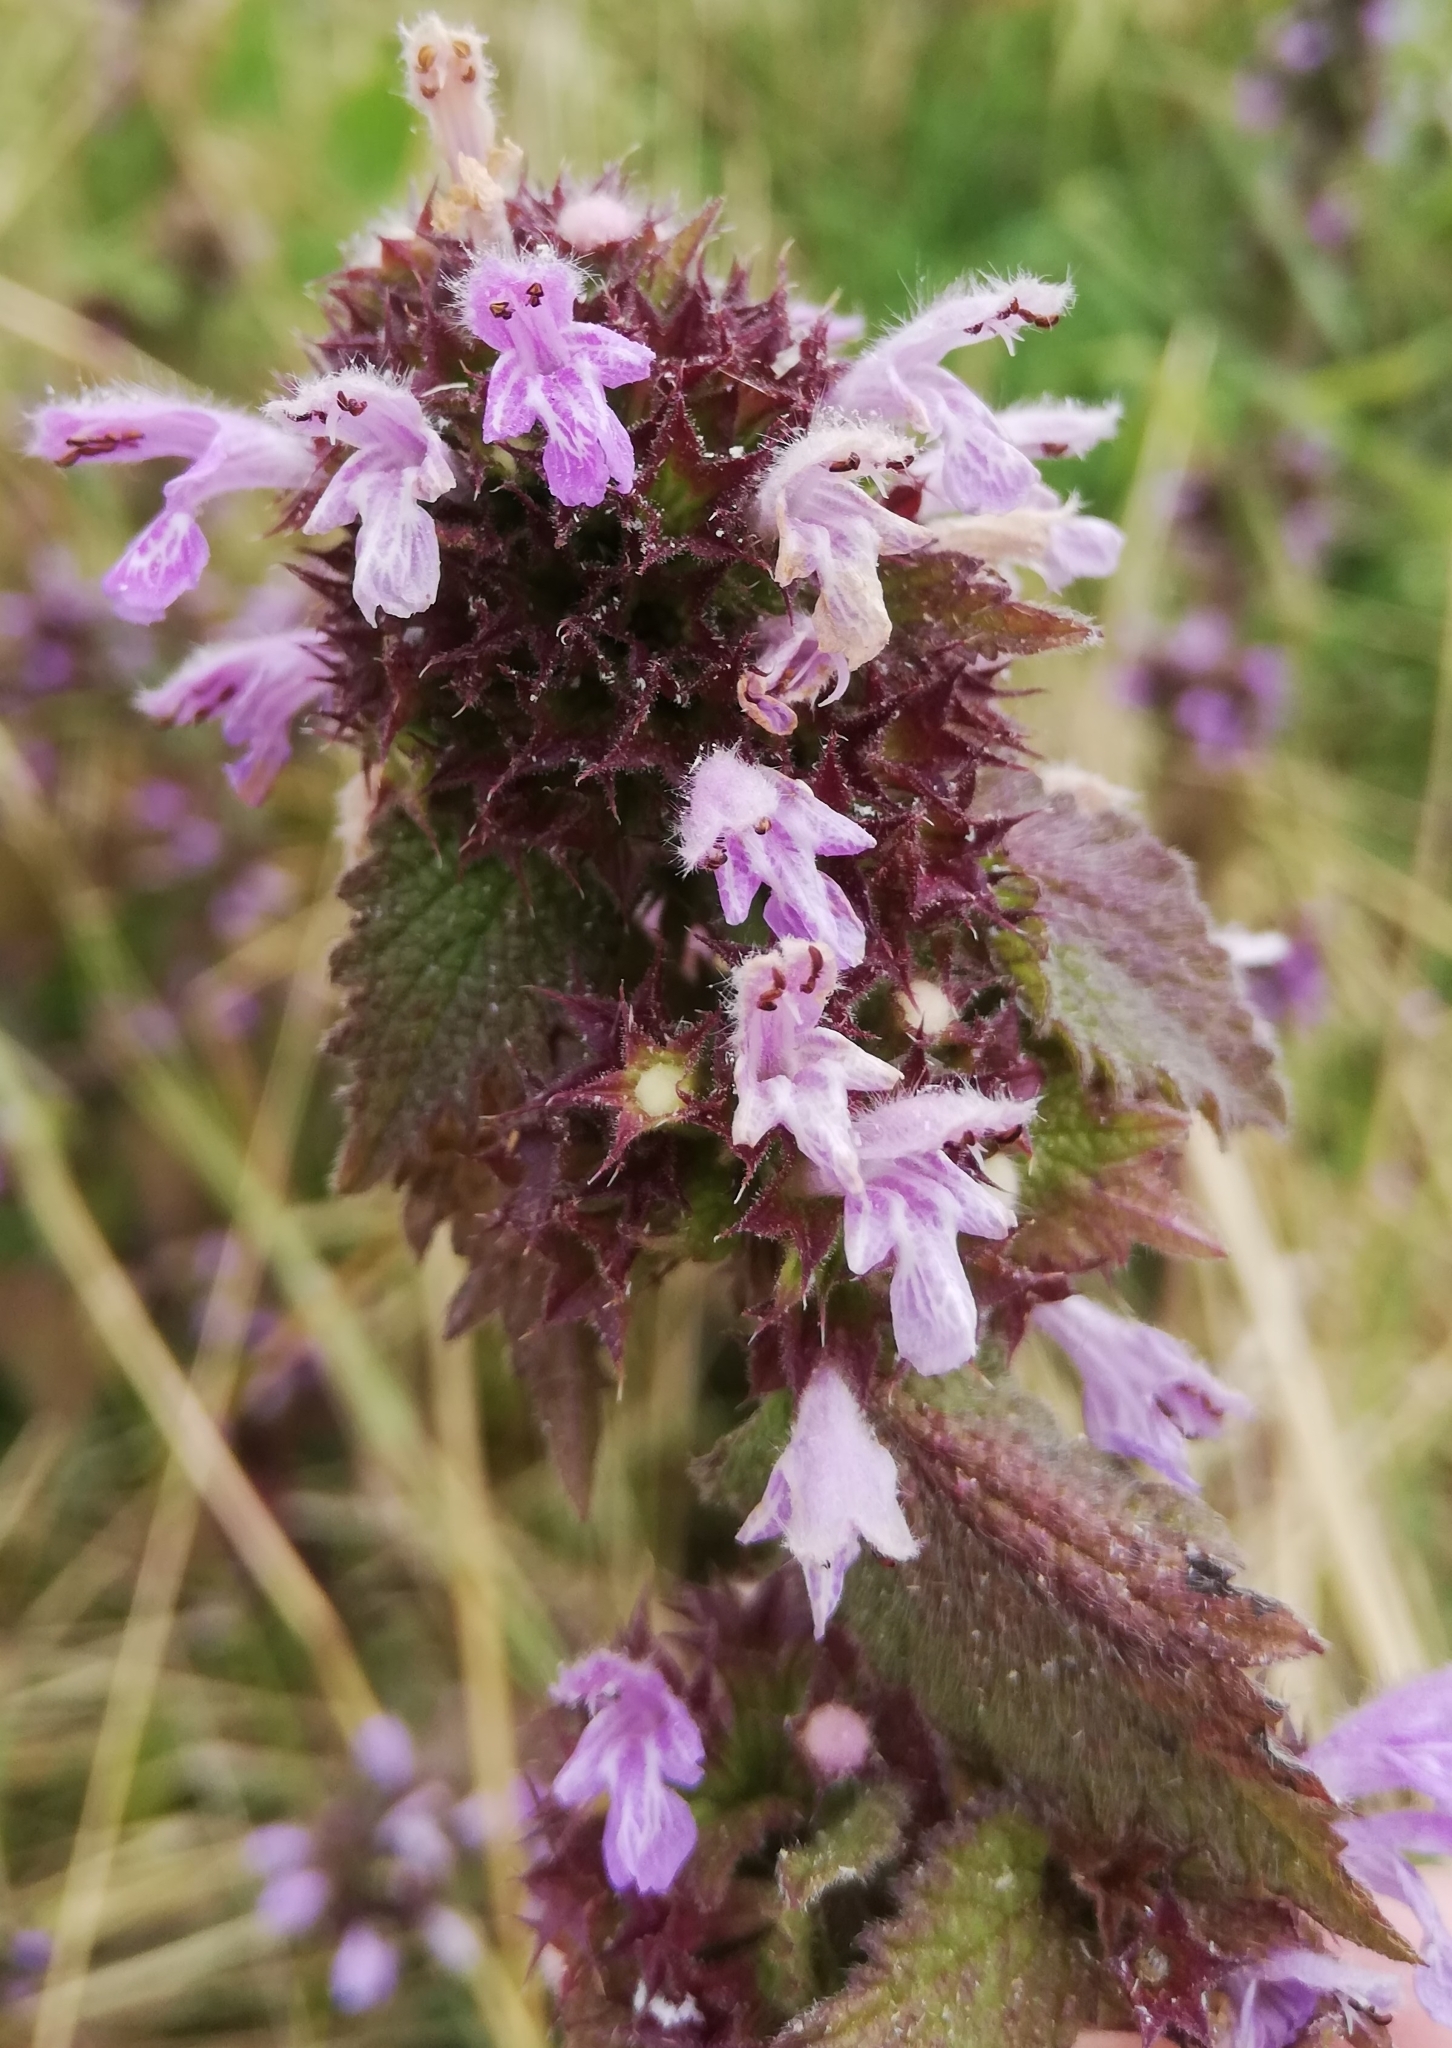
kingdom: Plantae
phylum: Tracheophyta
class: Magnoliopsida
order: Lamiales
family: Lamiaceae
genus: Ballota
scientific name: Ballota nigra
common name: Black horehound
